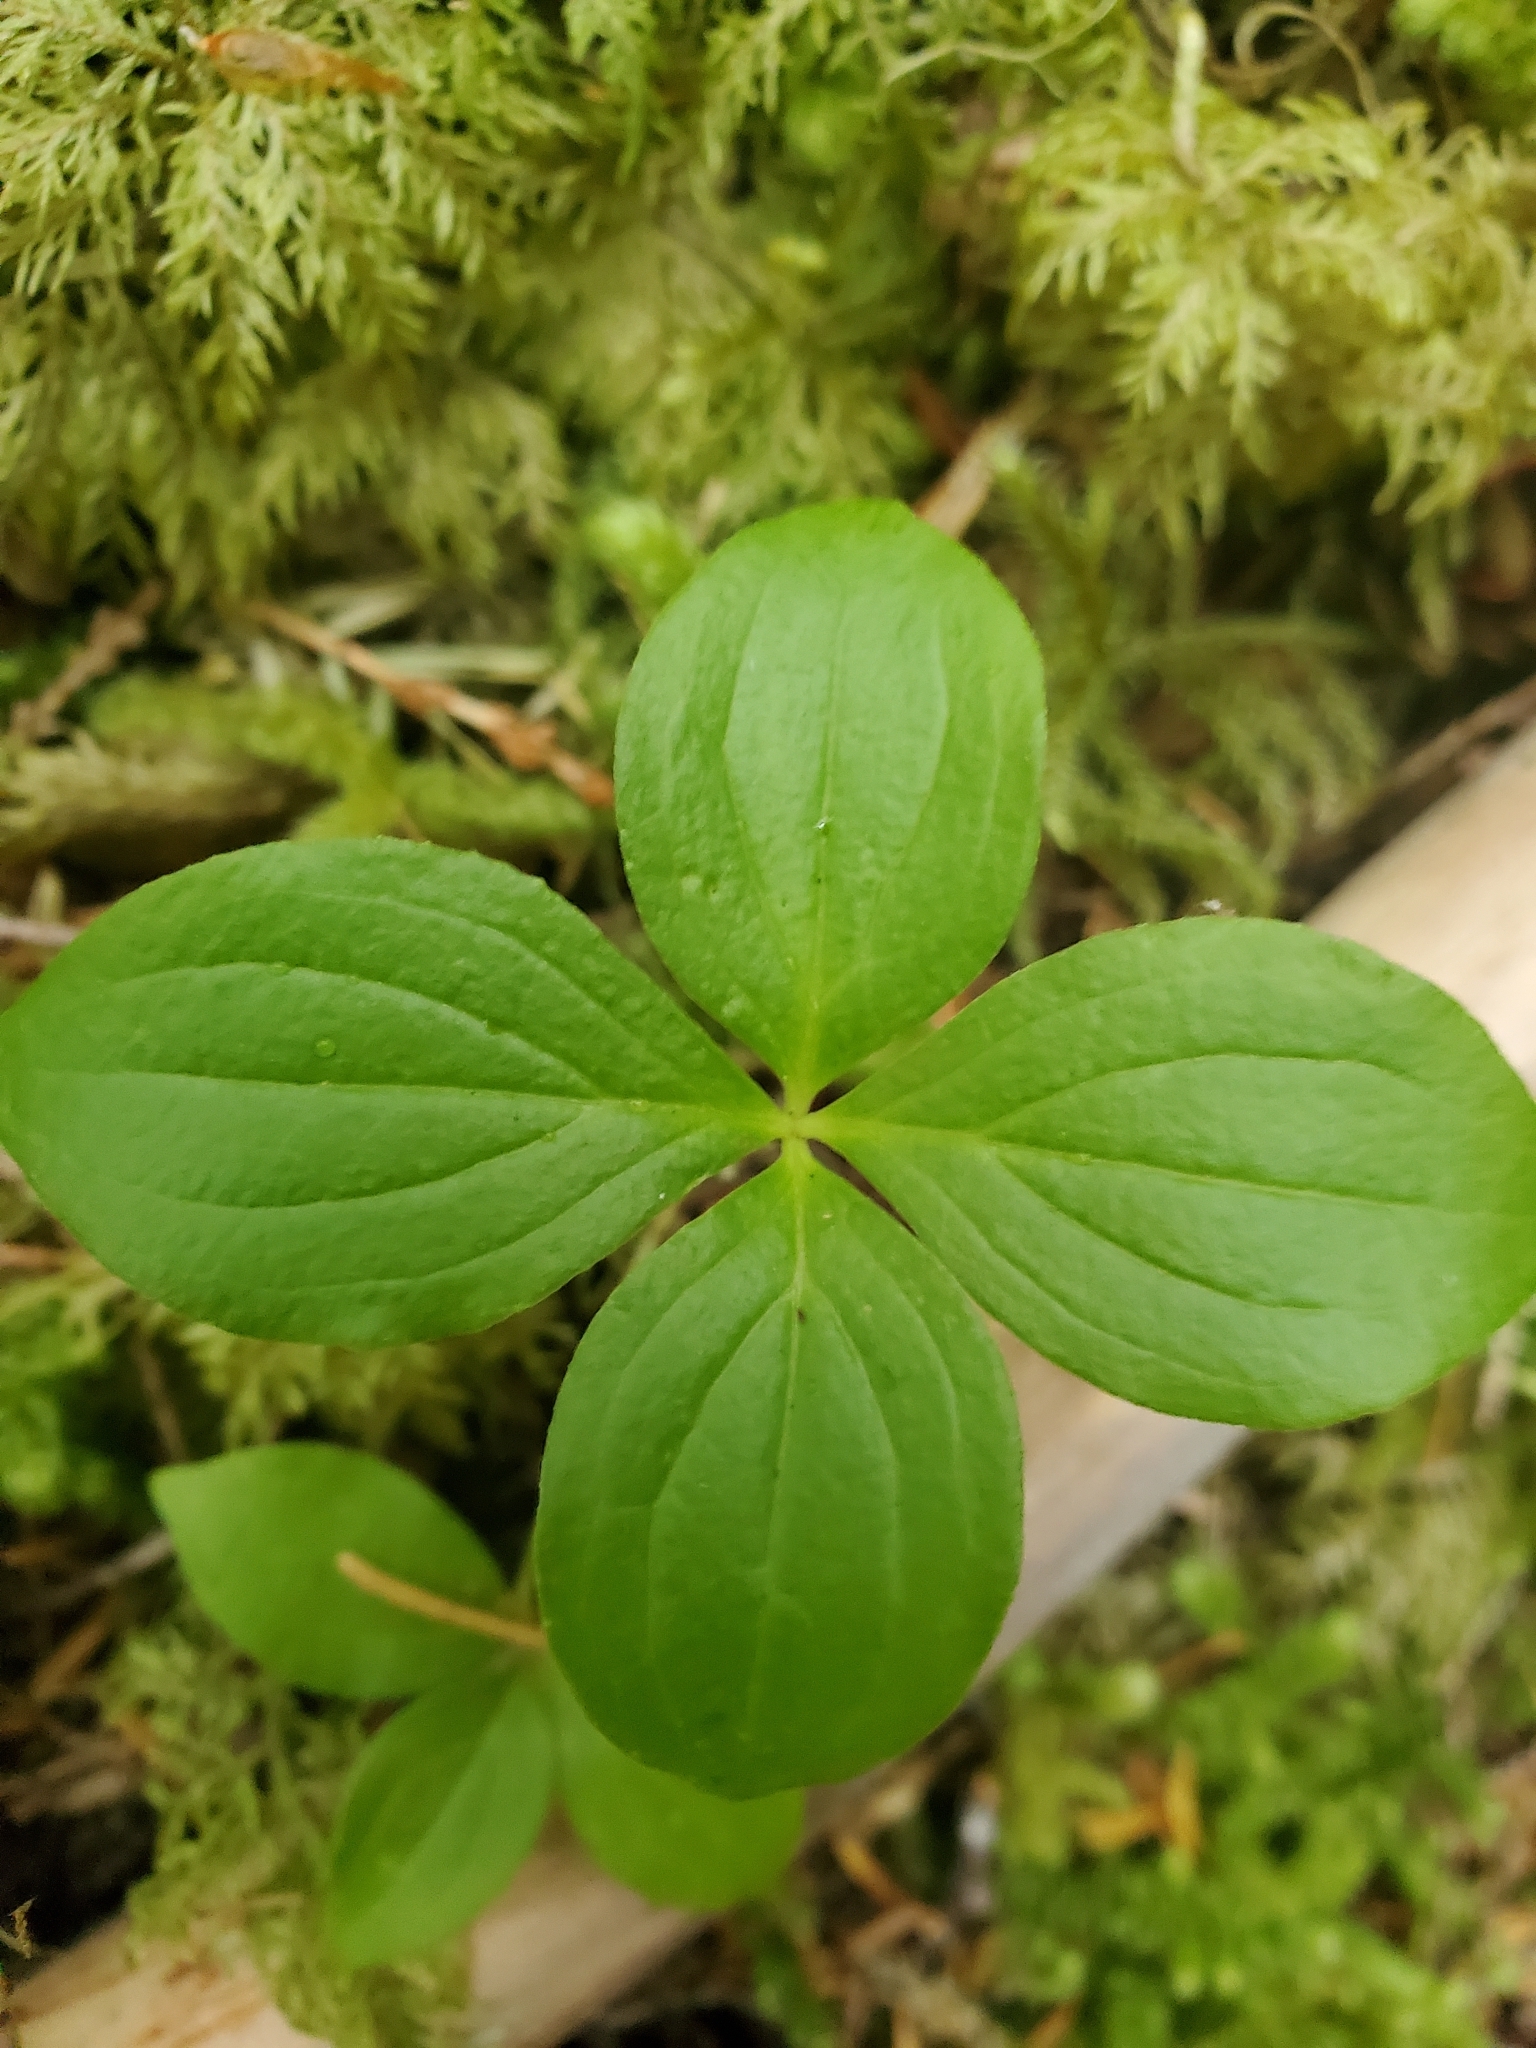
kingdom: Plantae
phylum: Tracheophyta
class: Magnoliopsida
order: Cornales
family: Cornaceae
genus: Cornus
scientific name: Cornus unalaschkensis
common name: Alaska bunchberry
